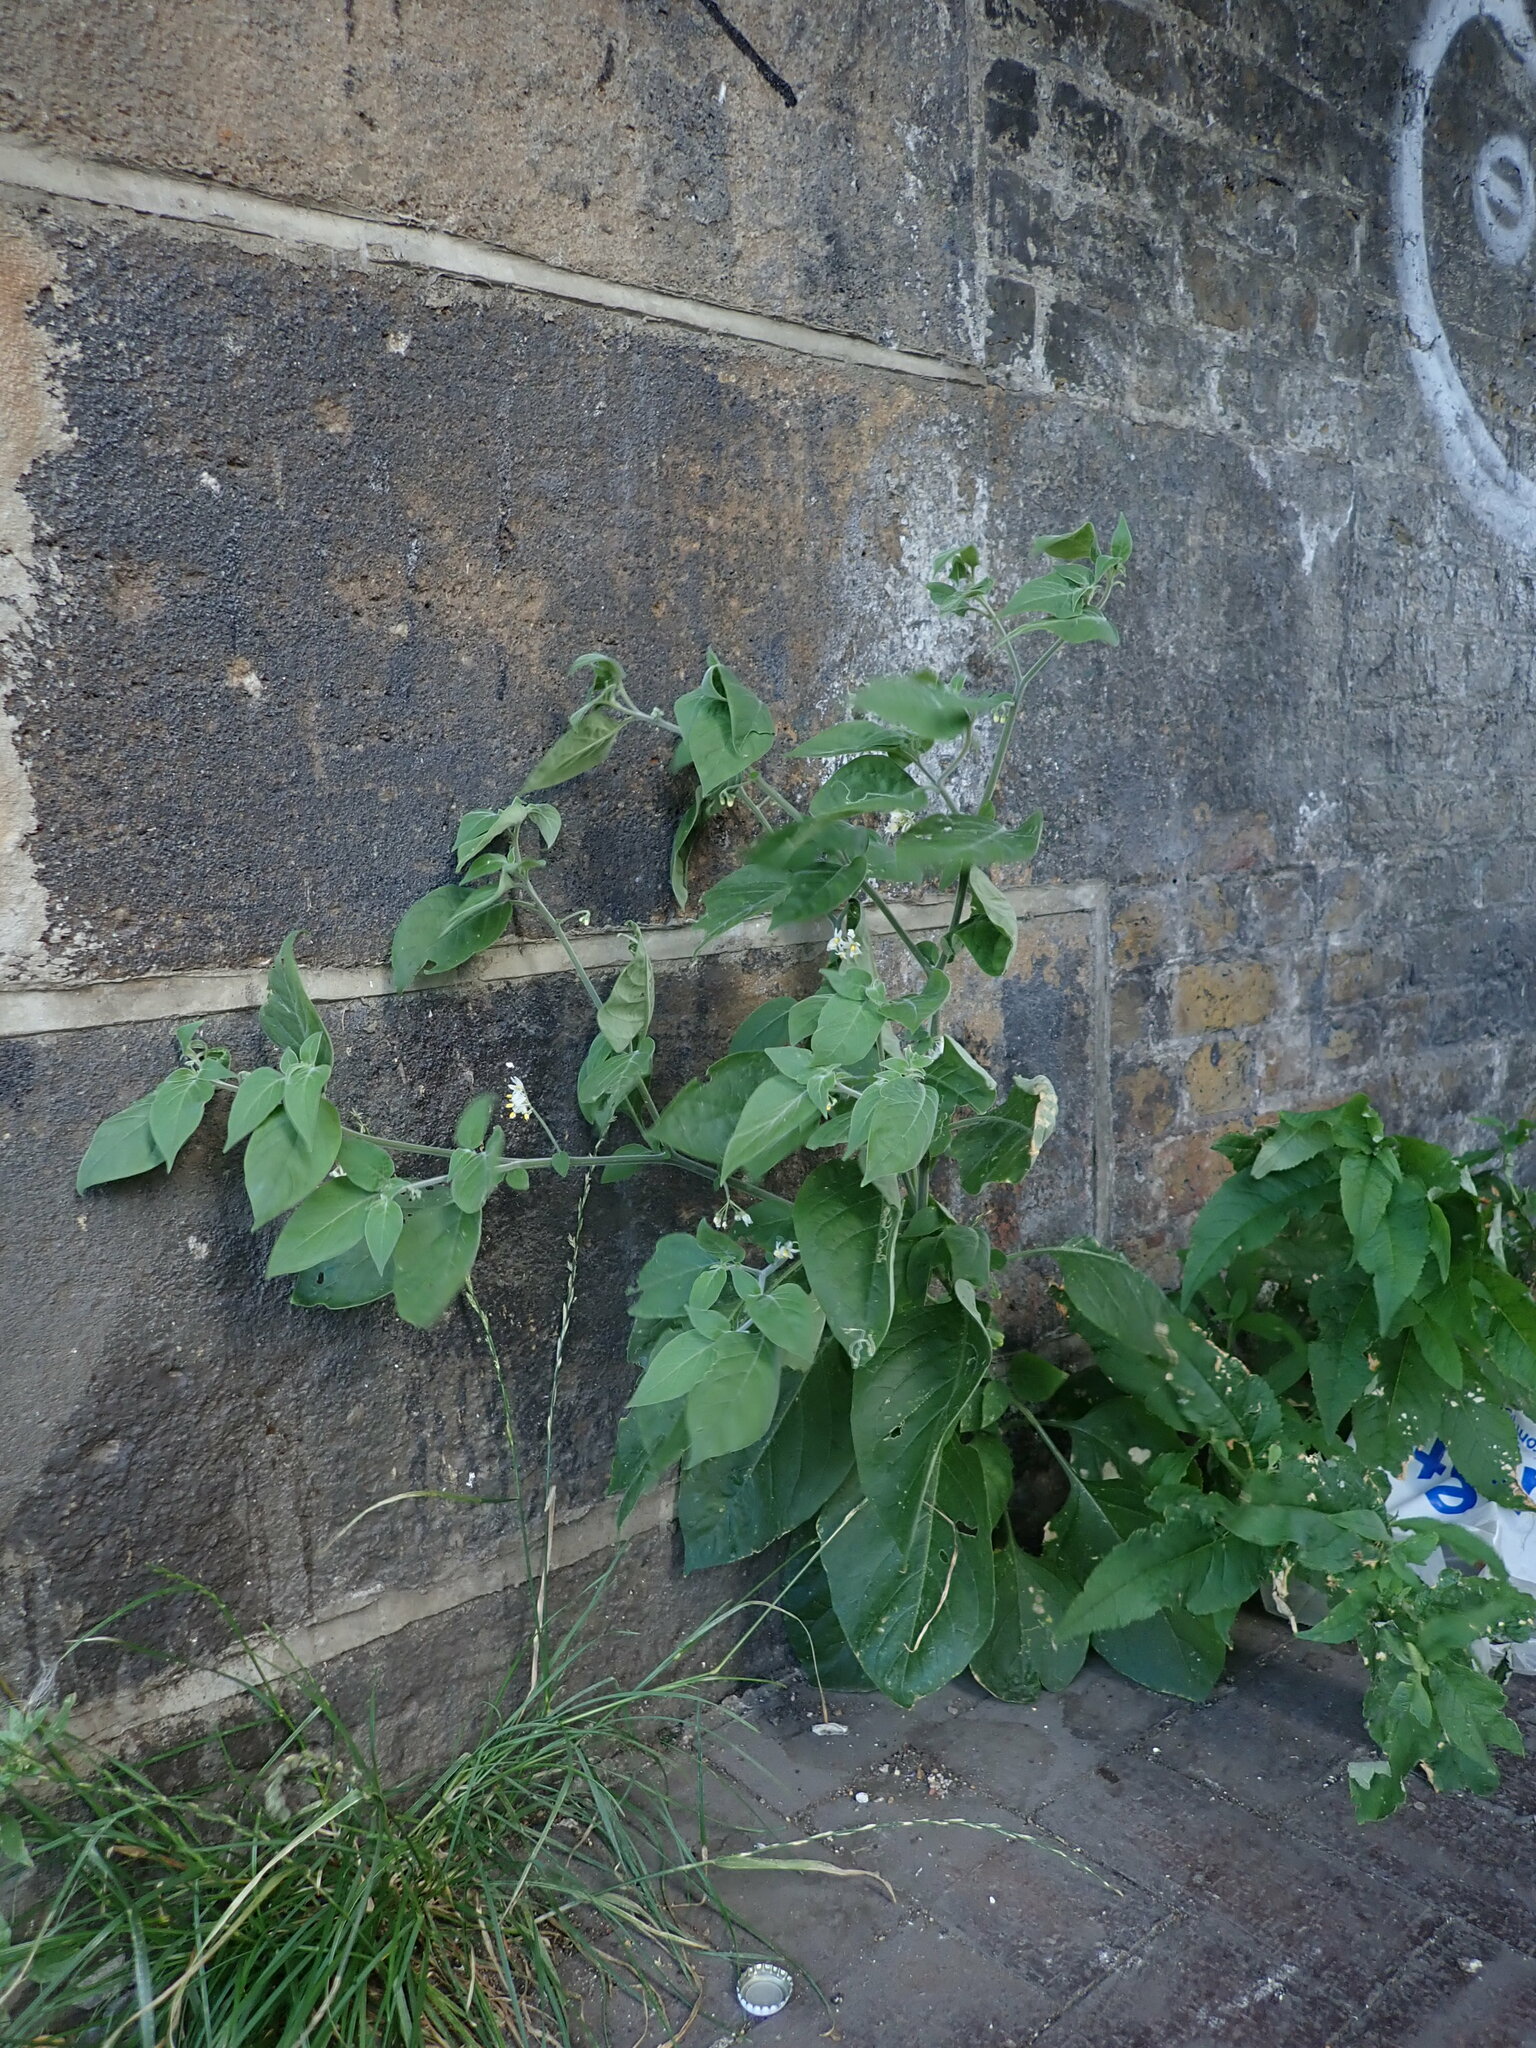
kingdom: Plantae
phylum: Tracheophyta
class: Magnoliopsida
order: Solanales
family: Solanaceae
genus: Solanum
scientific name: Solanum chenopodioides
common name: Tall nightshade
